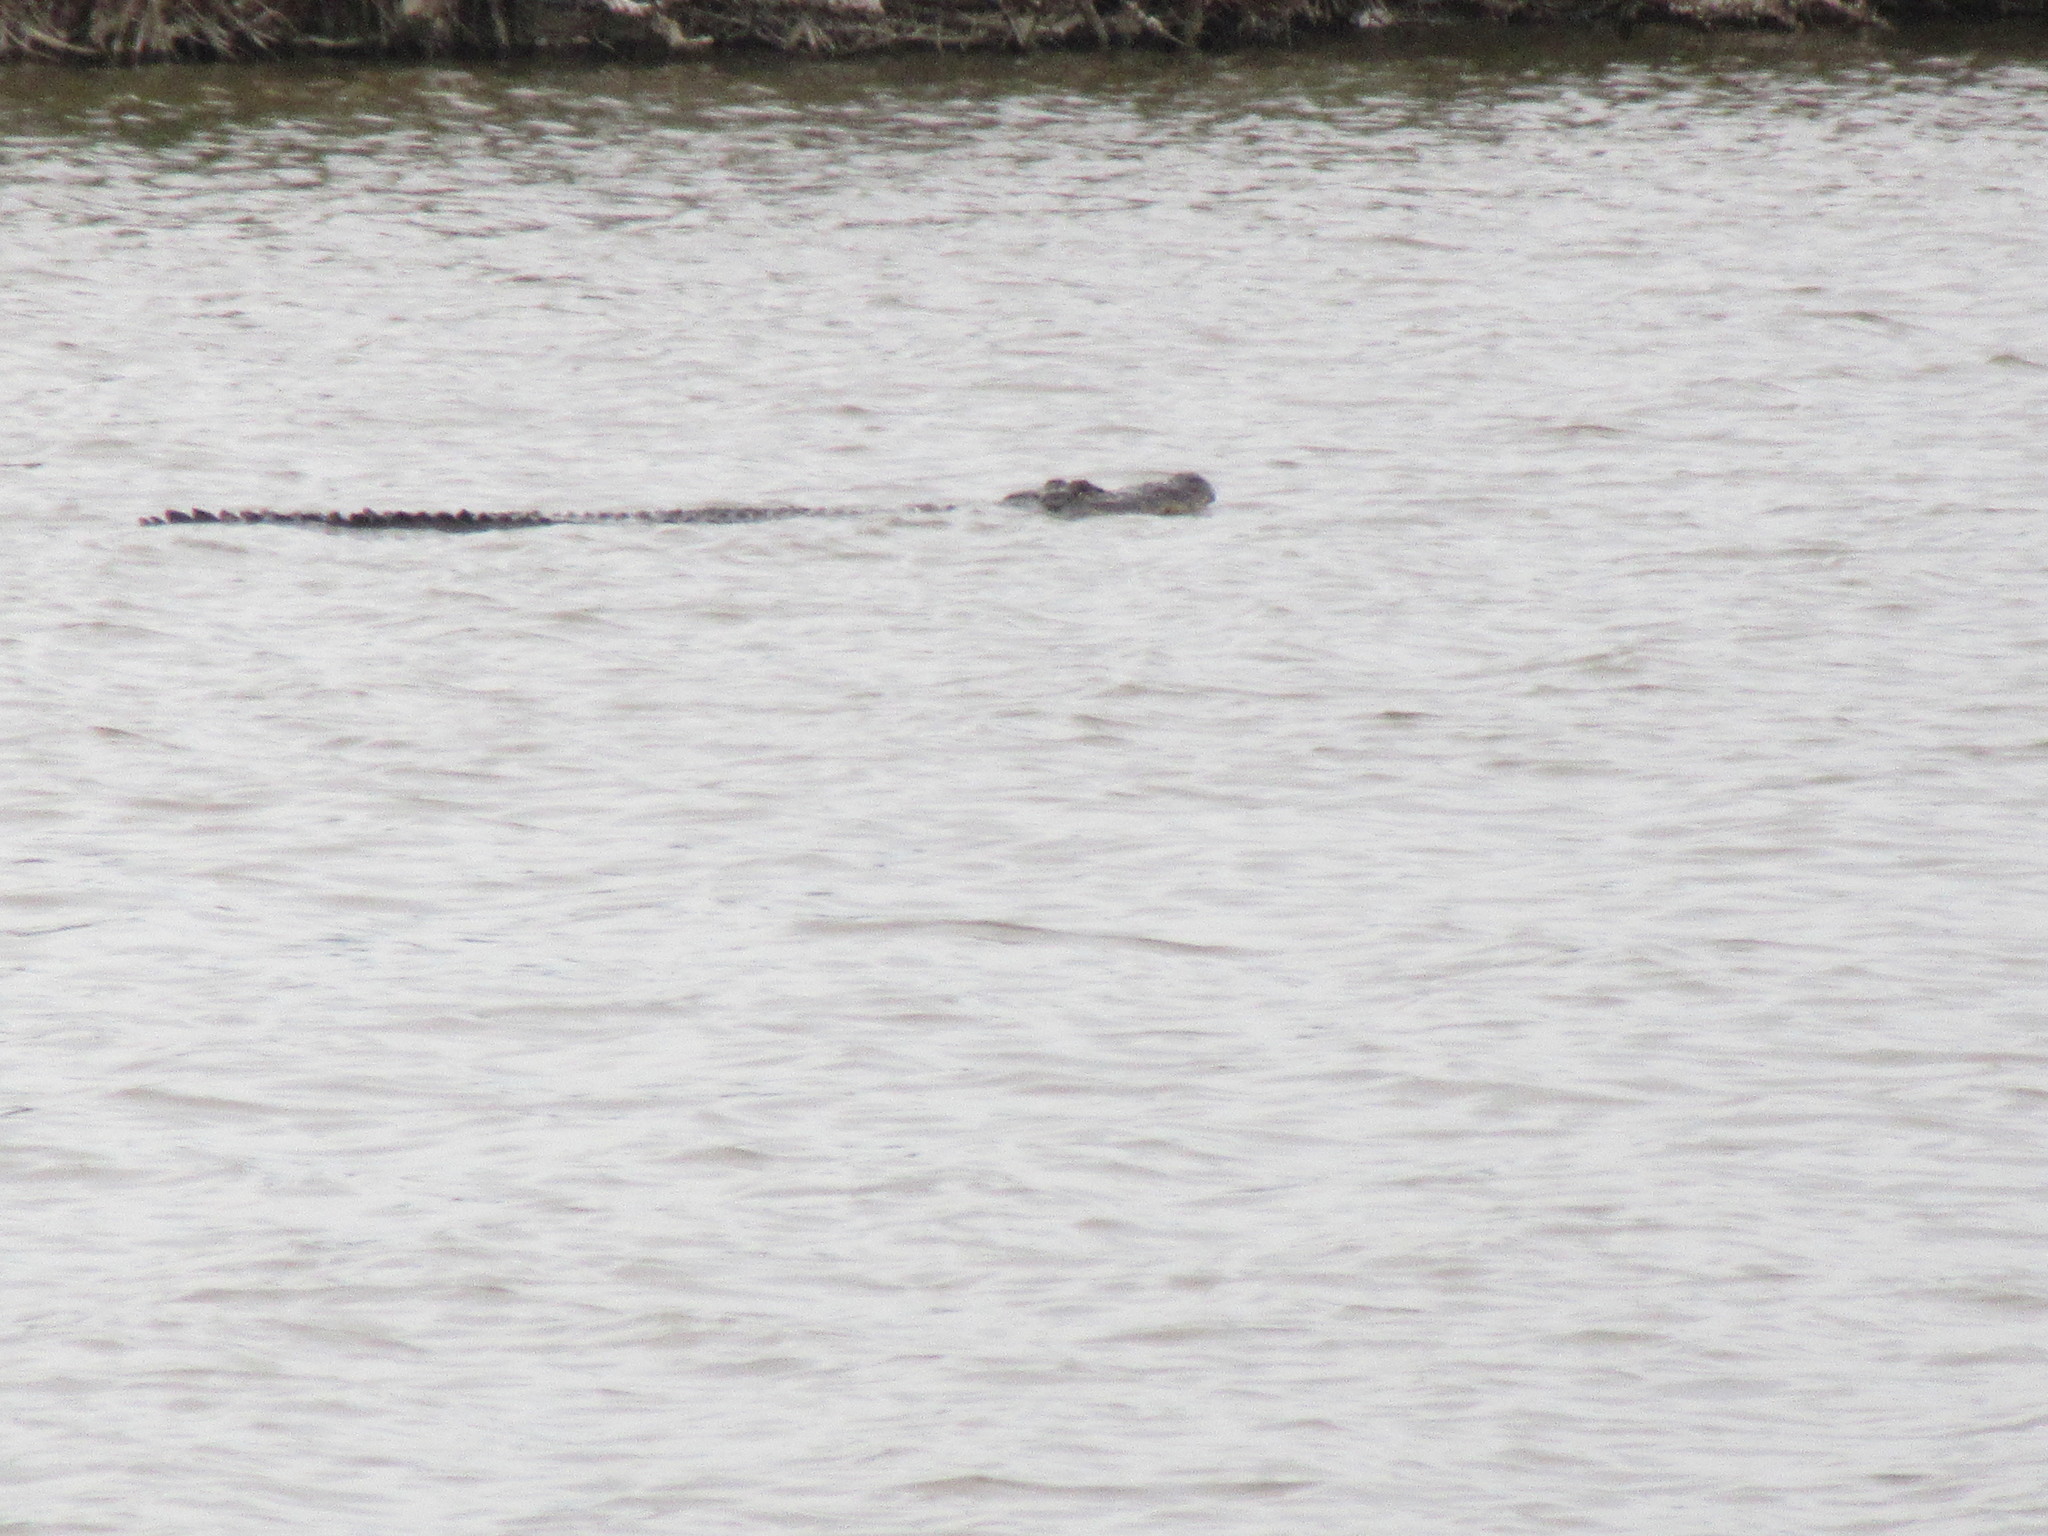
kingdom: Animalia
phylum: Chordata
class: Crocodylia
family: Alligatoridae
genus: Alligator
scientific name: Alligator mississippiensis
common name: American alligator
